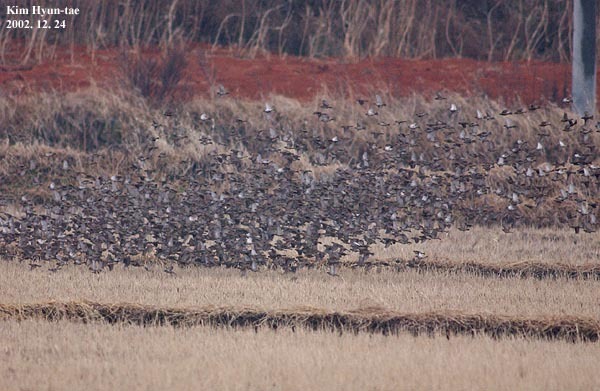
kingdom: Animalia
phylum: Chordata
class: Aves
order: Passeriformes
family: Passeridae
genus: Passer
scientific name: Passer montanus
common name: Eurasian tree sparrow
